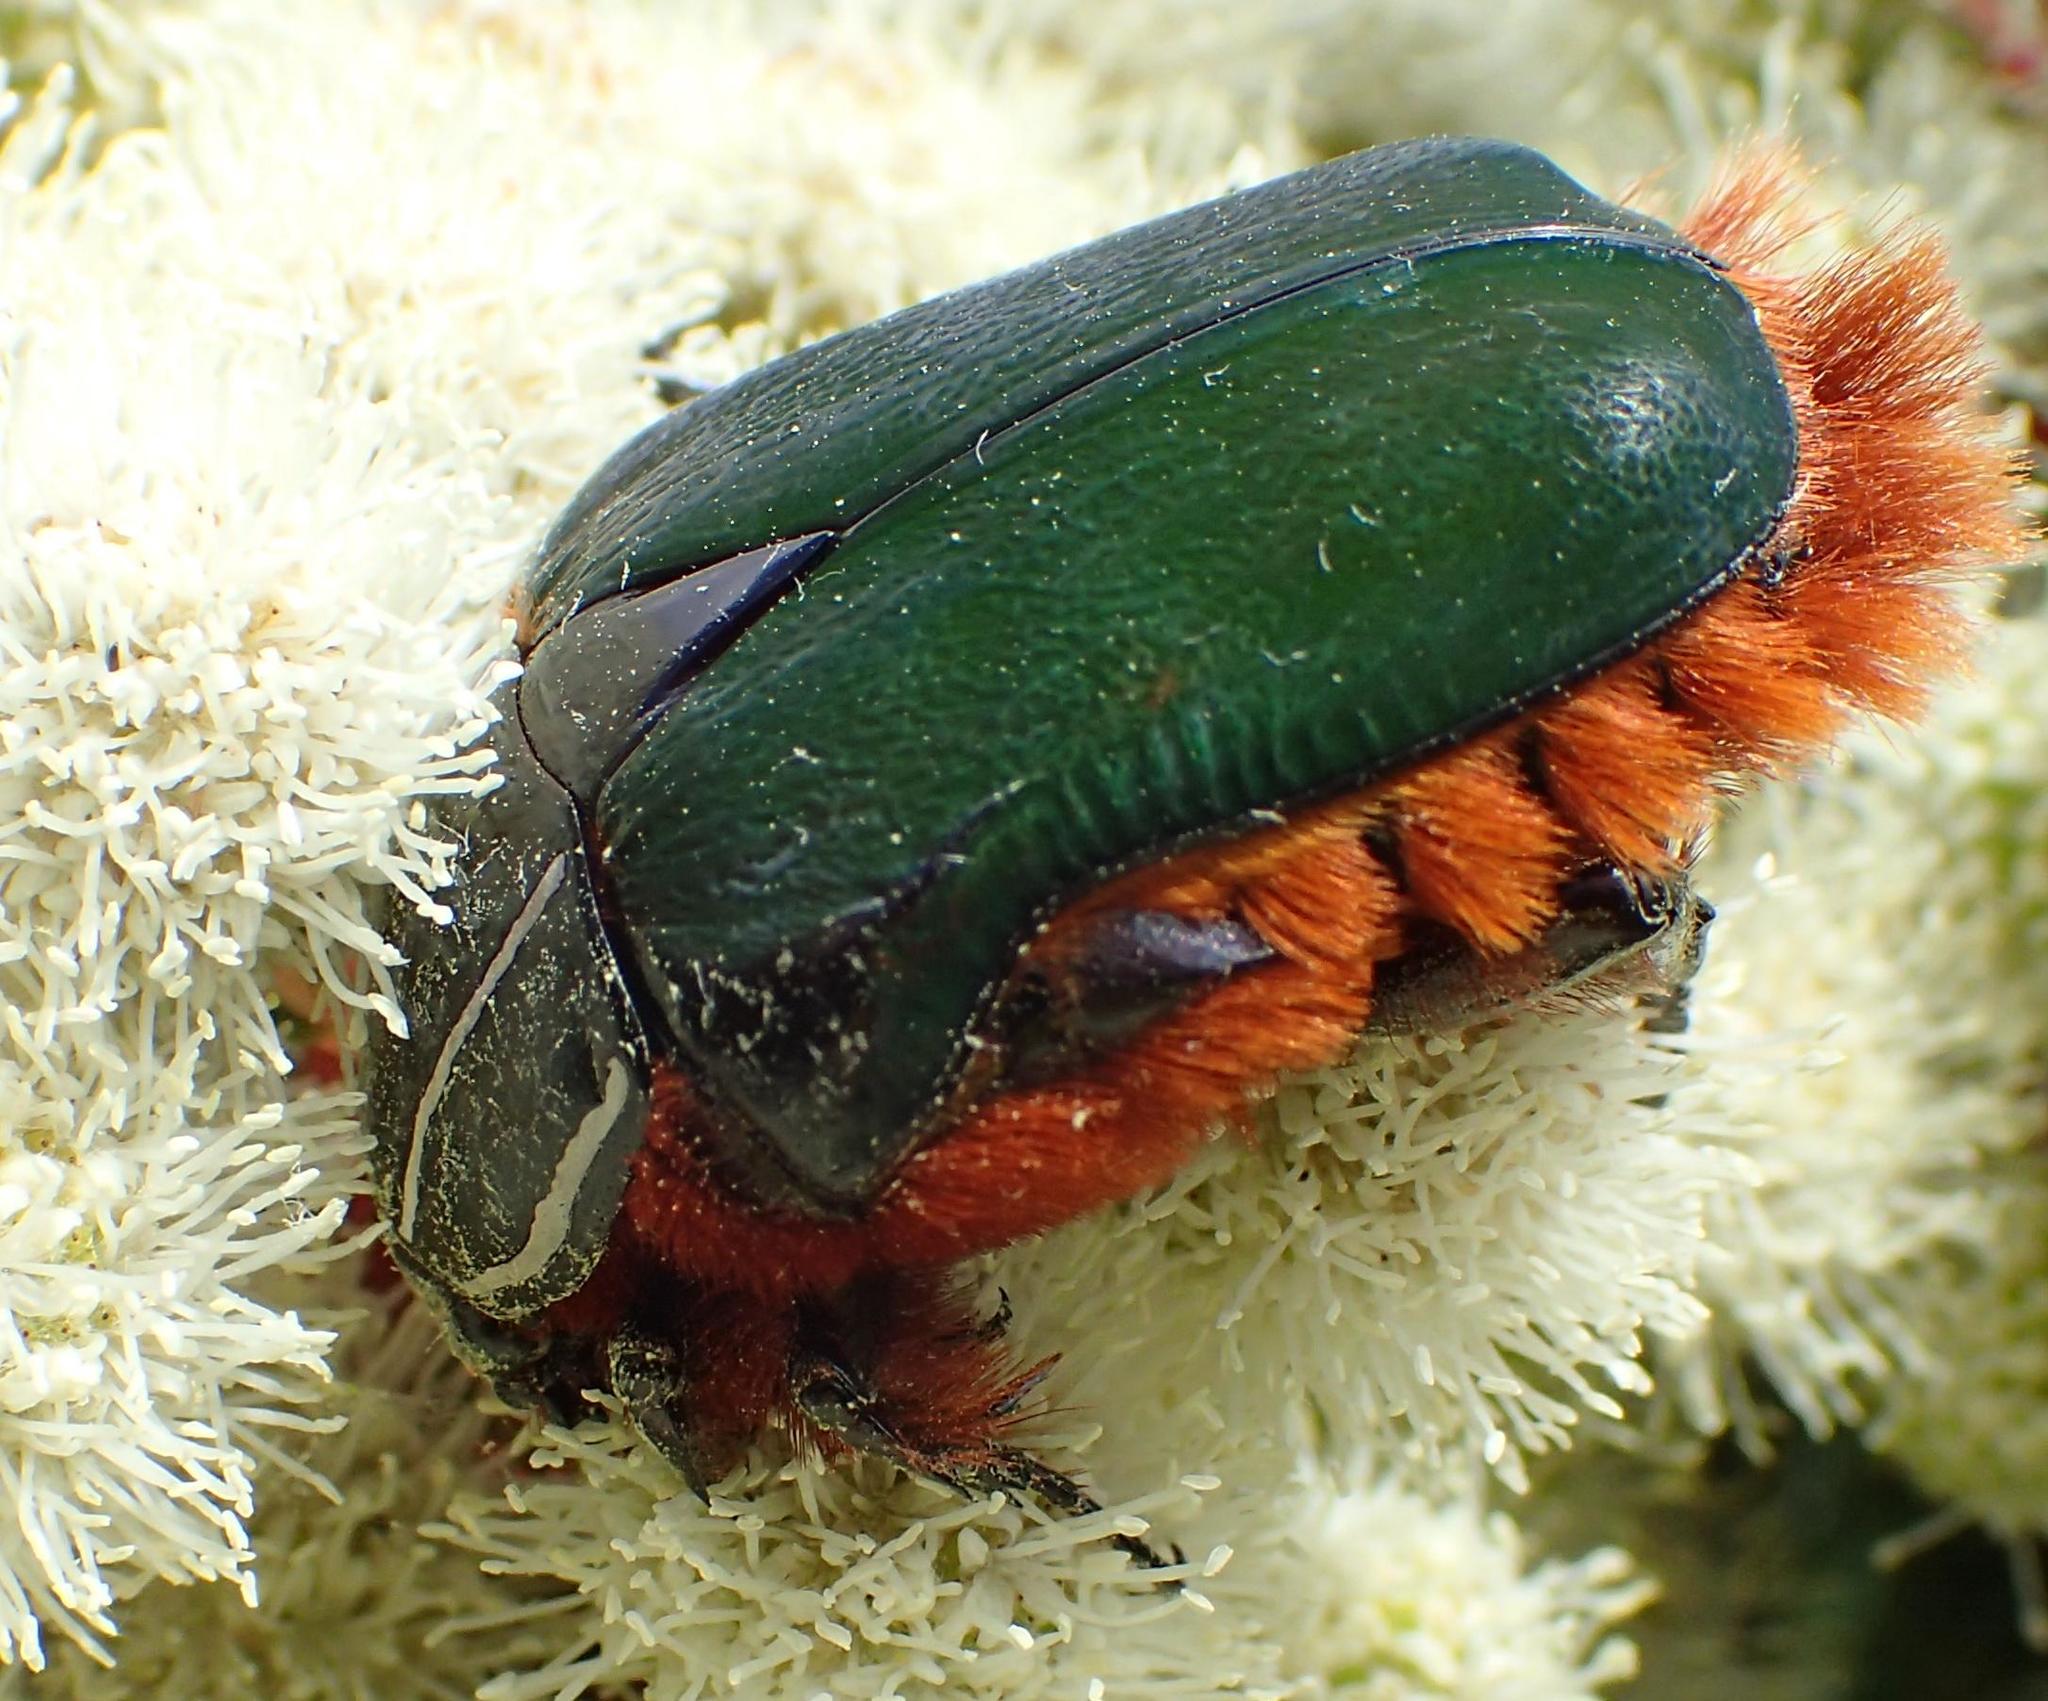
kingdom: Animalia
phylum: Arthropoda
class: Insecta
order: Coleoptera
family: Scarabaeidae
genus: Trichostetha
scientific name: Trichostetha fascicularis
